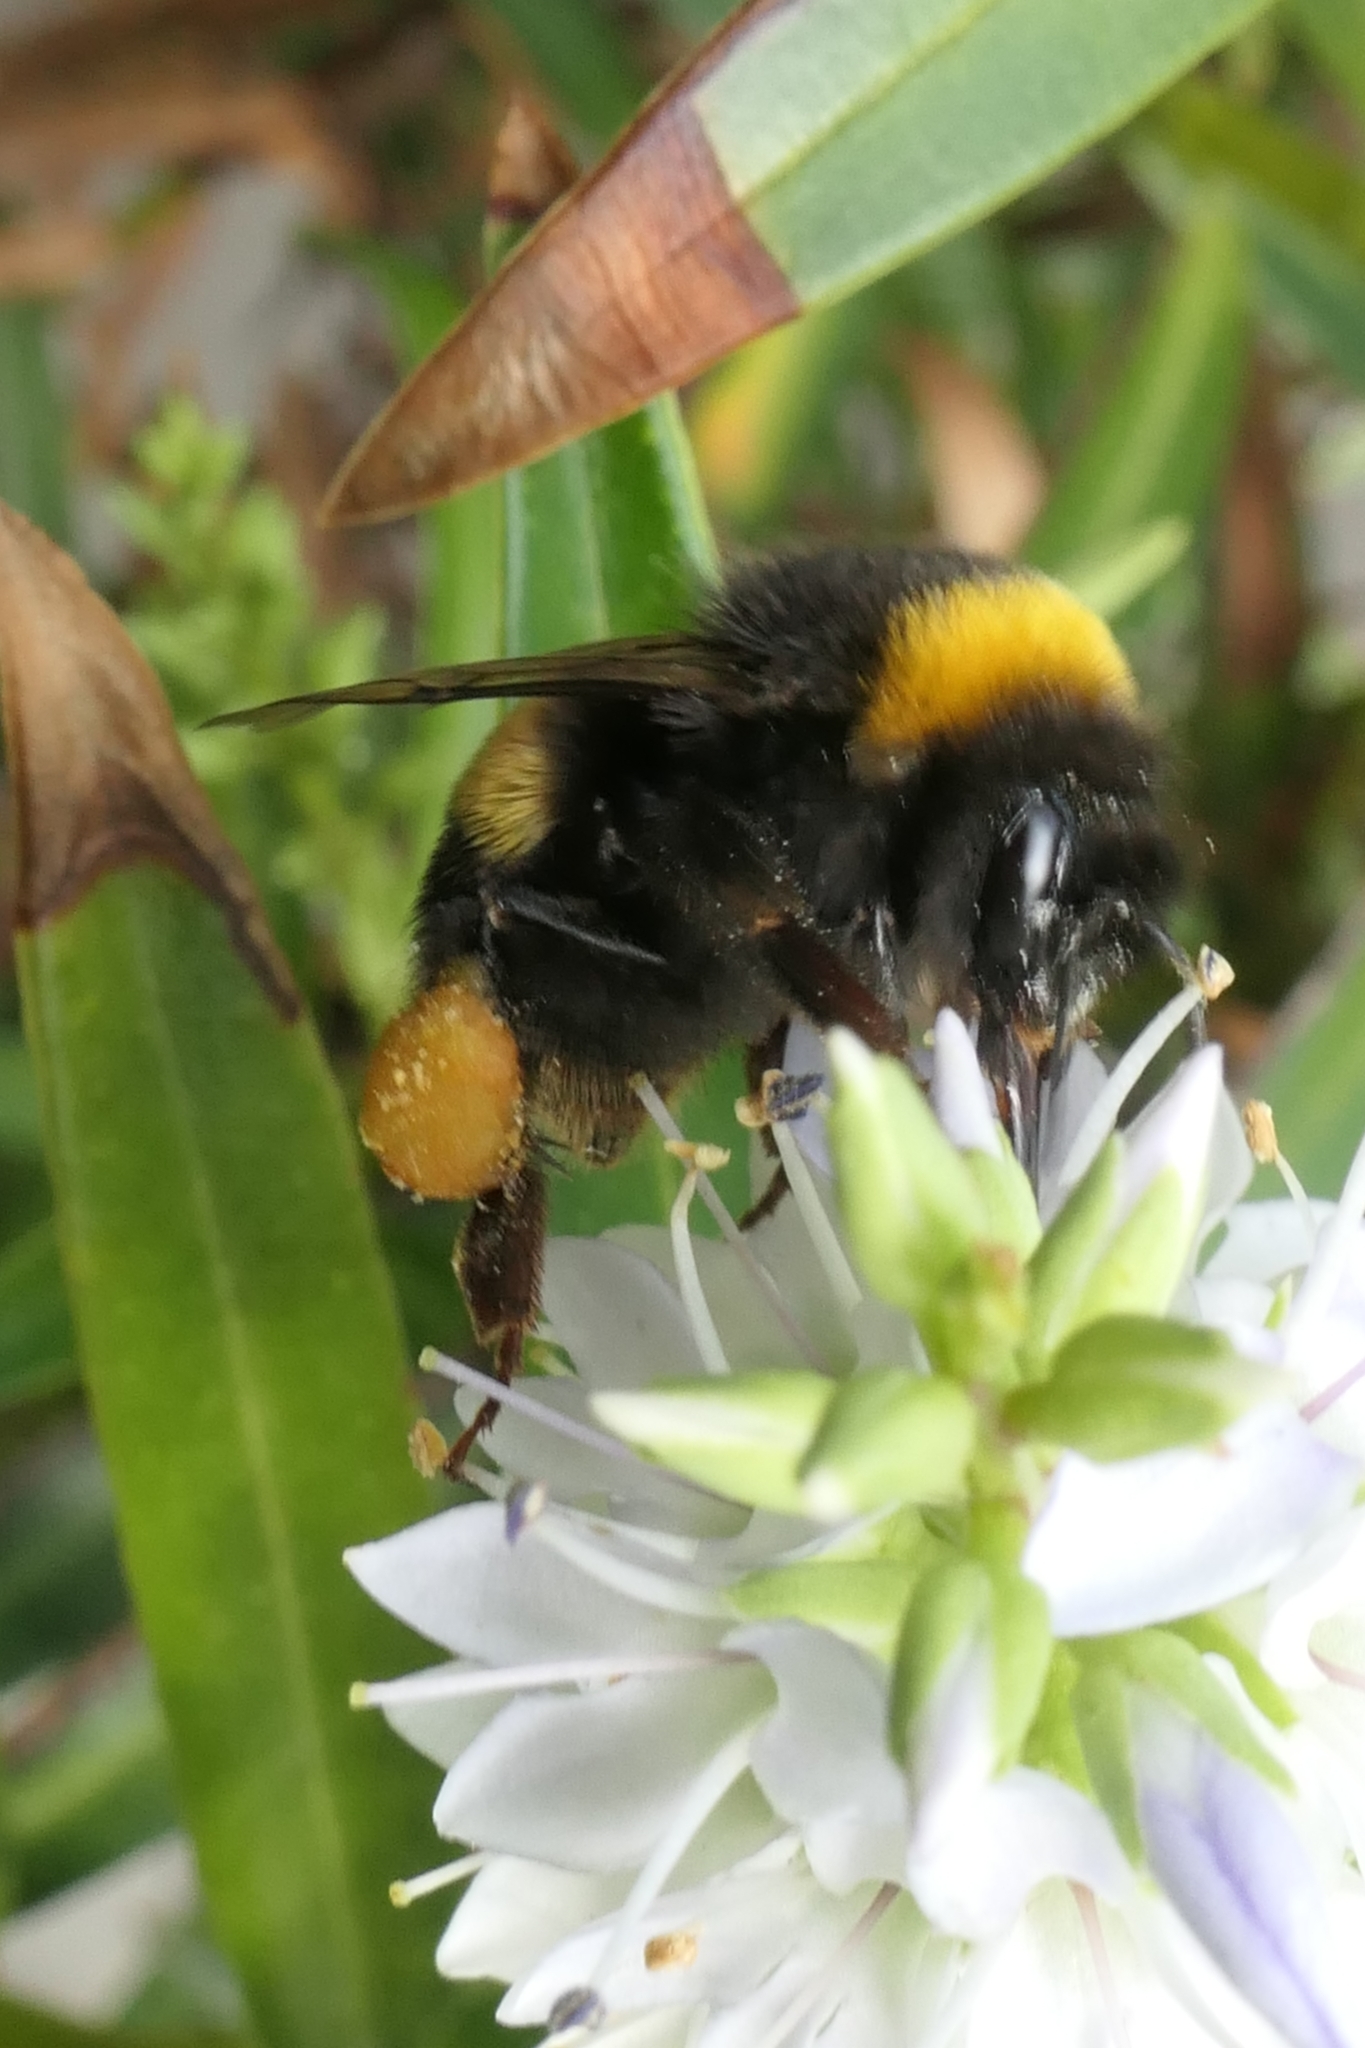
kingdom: Animalia
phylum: Arthropoda
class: Insecta
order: Hymenoptera
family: Apidae
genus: Bombus
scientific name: Bombus terrestris
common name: Buff-tailed bumblebee
